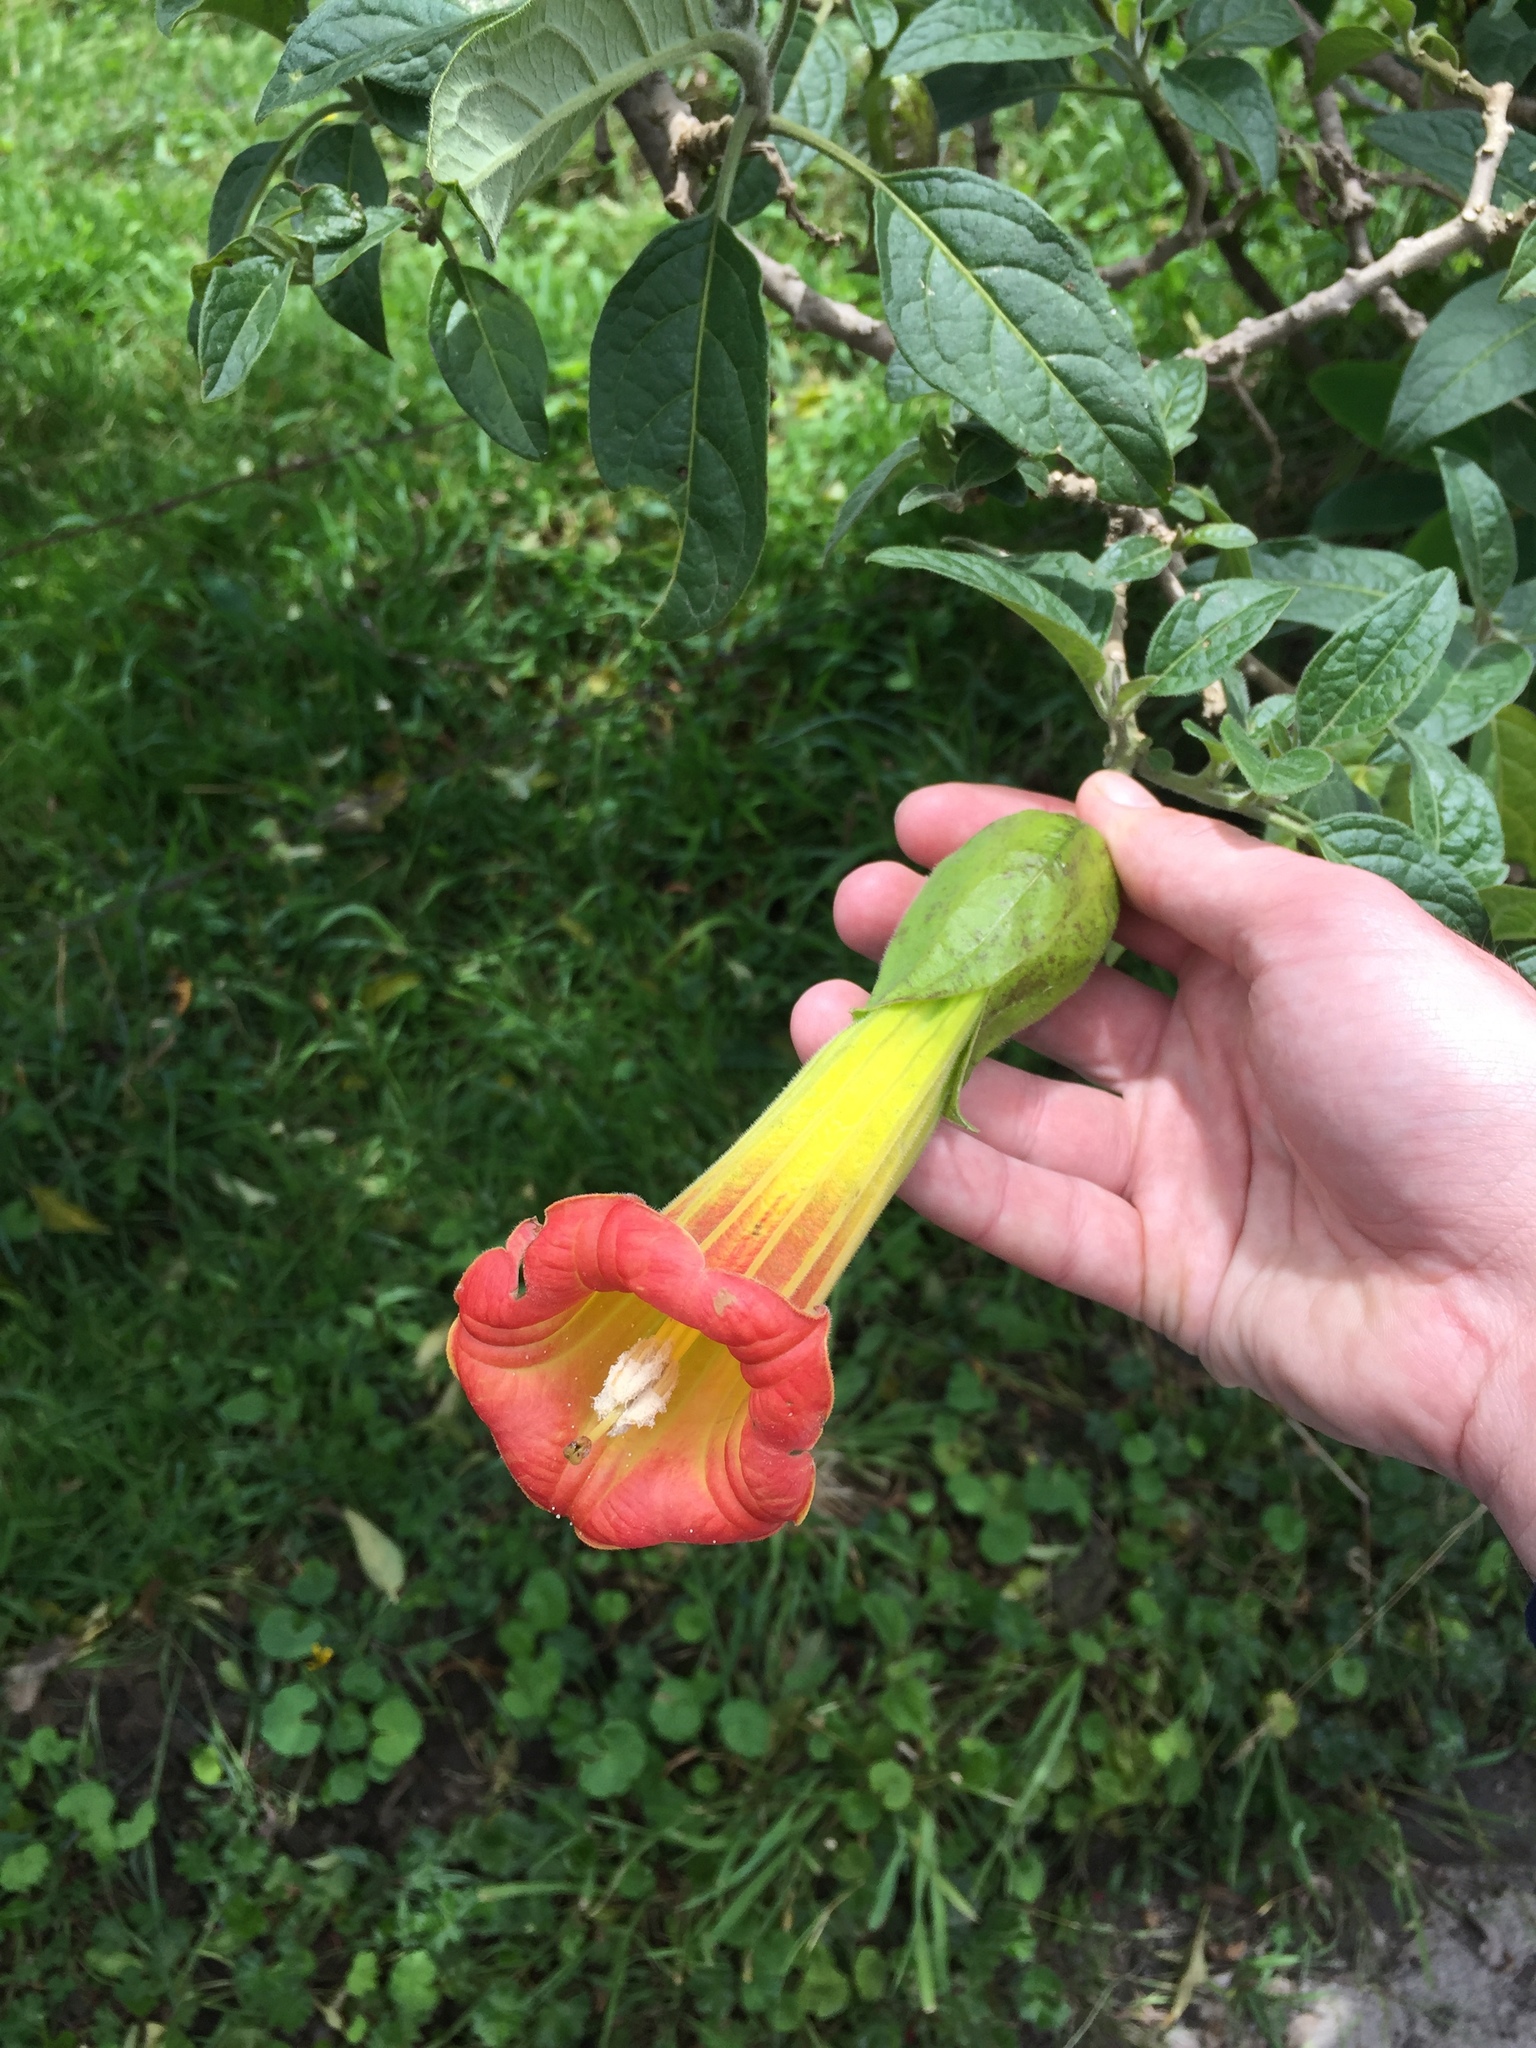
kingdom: Plantae
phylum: Tracheophyta
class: Magnoliopsida
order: Solanales
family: Solanaceae
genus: Brugmansia
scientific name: Brugmansia sanguinea
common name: Red floripontio
